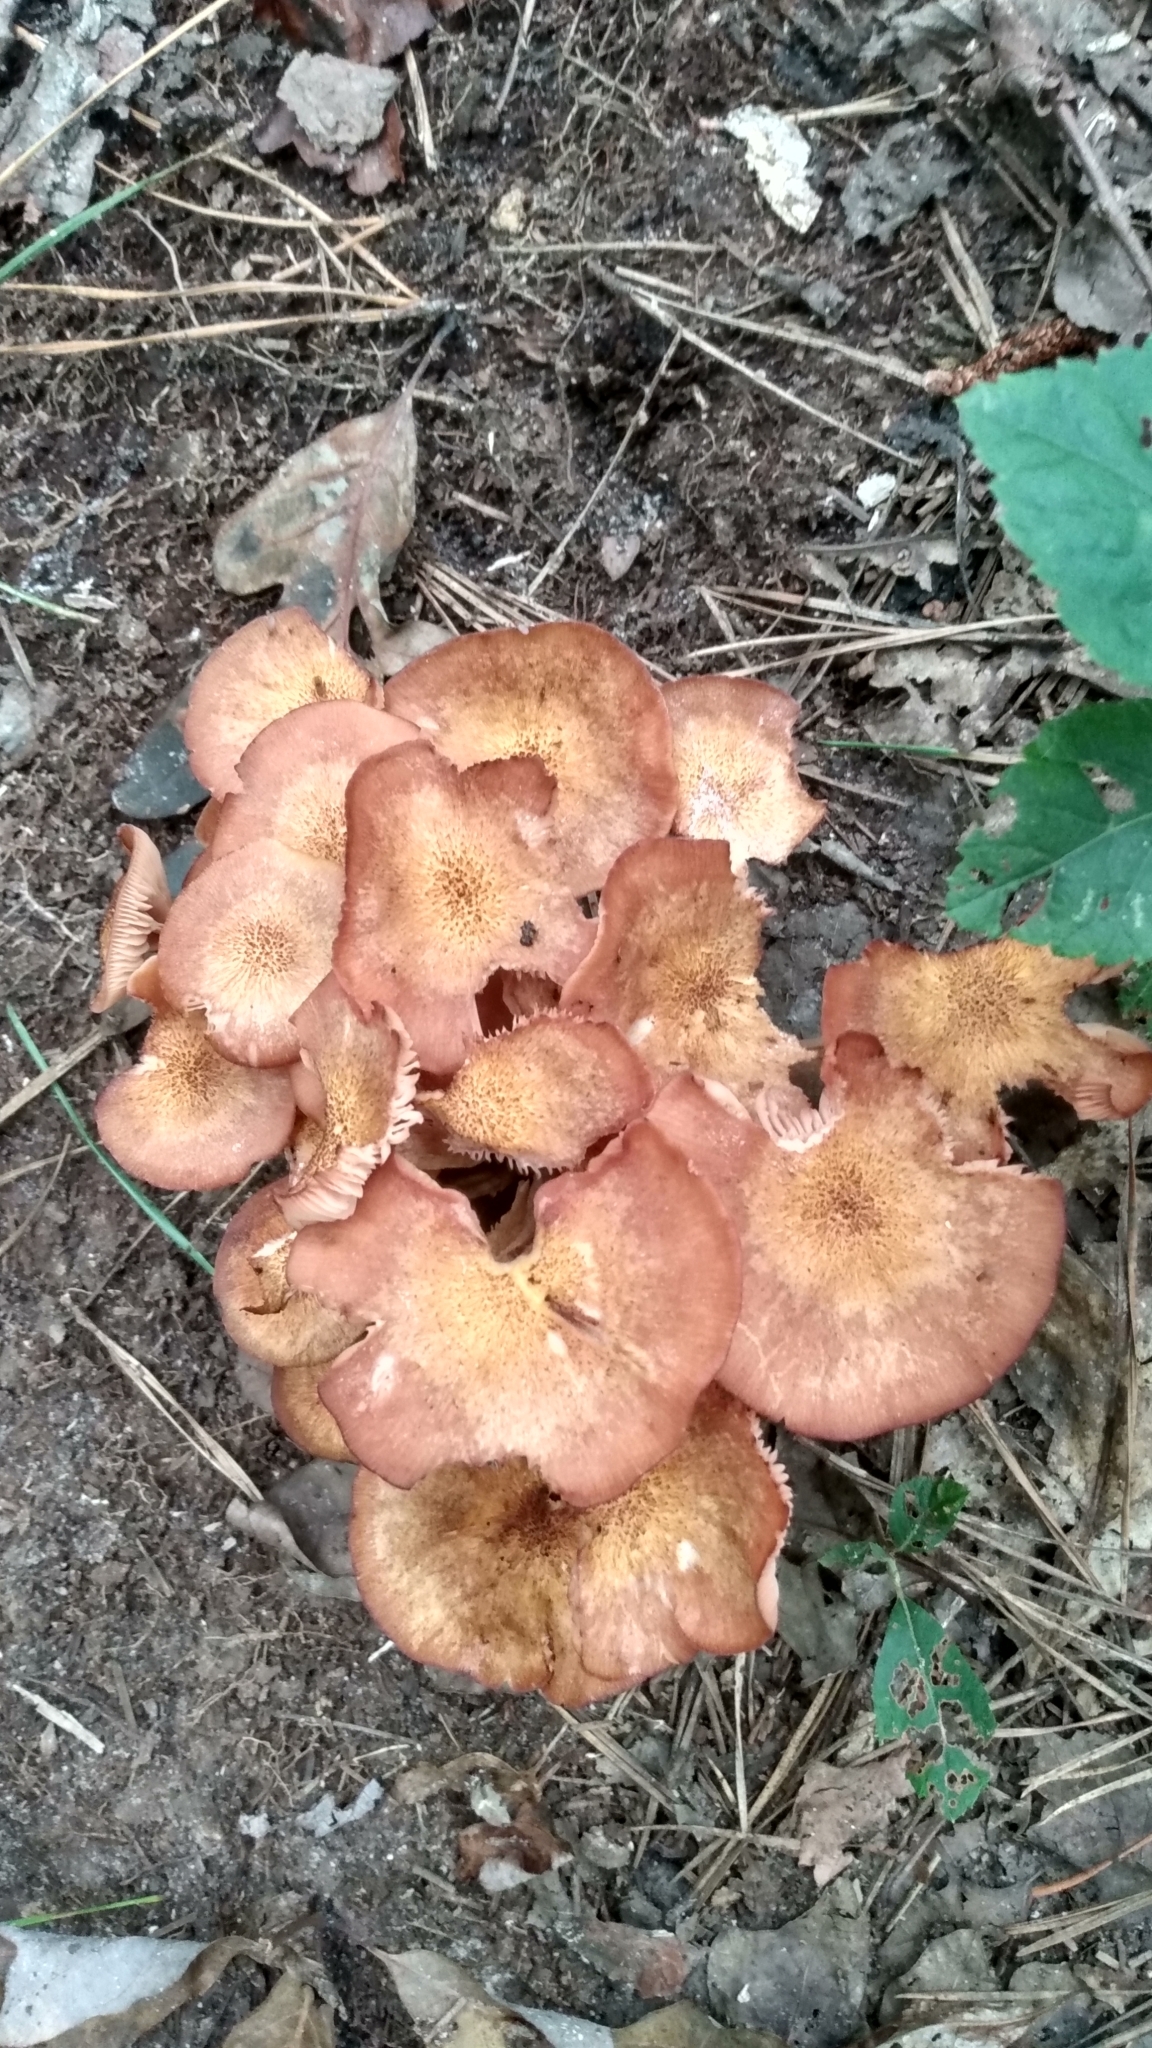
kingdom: Fungi
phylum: Basidiomycota
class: Agaricomycetes
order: Agaricales
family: Physalacriaceae
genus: Desarmillaria
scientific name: Desarmillaria caespitosa
